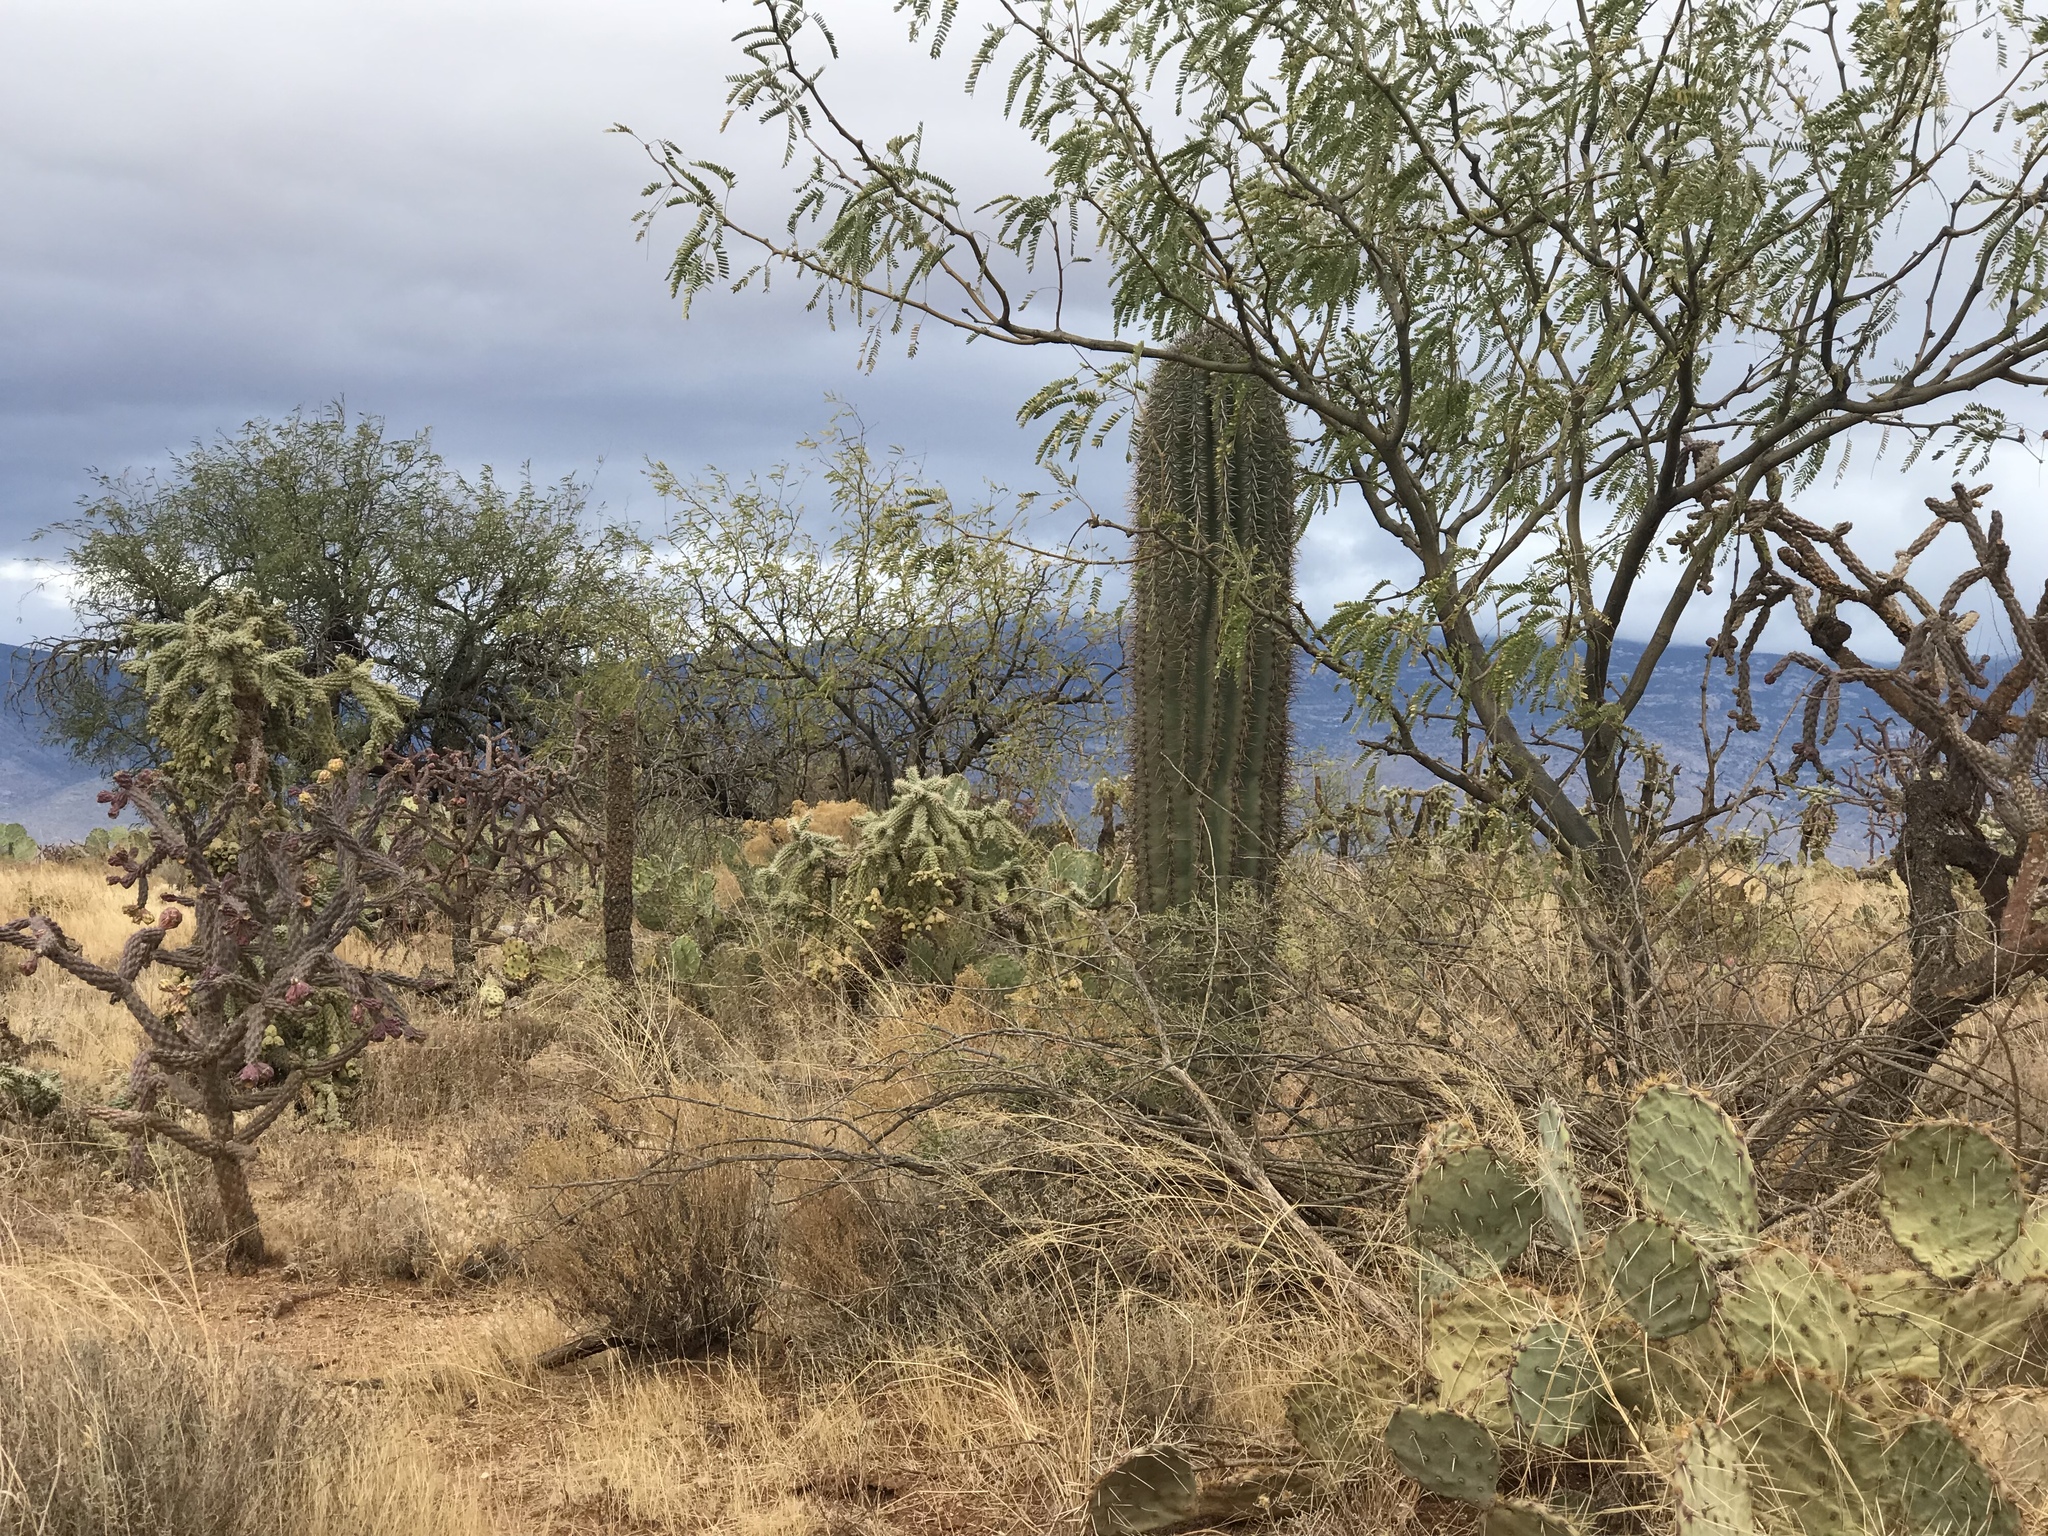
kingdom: Plantae
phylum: Tracheophyta
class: Magnoliopsida
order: Caryophyllales
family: Cactaceae
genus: Carnegiea
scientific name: Carnegiea gigantea
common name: Saguaro
